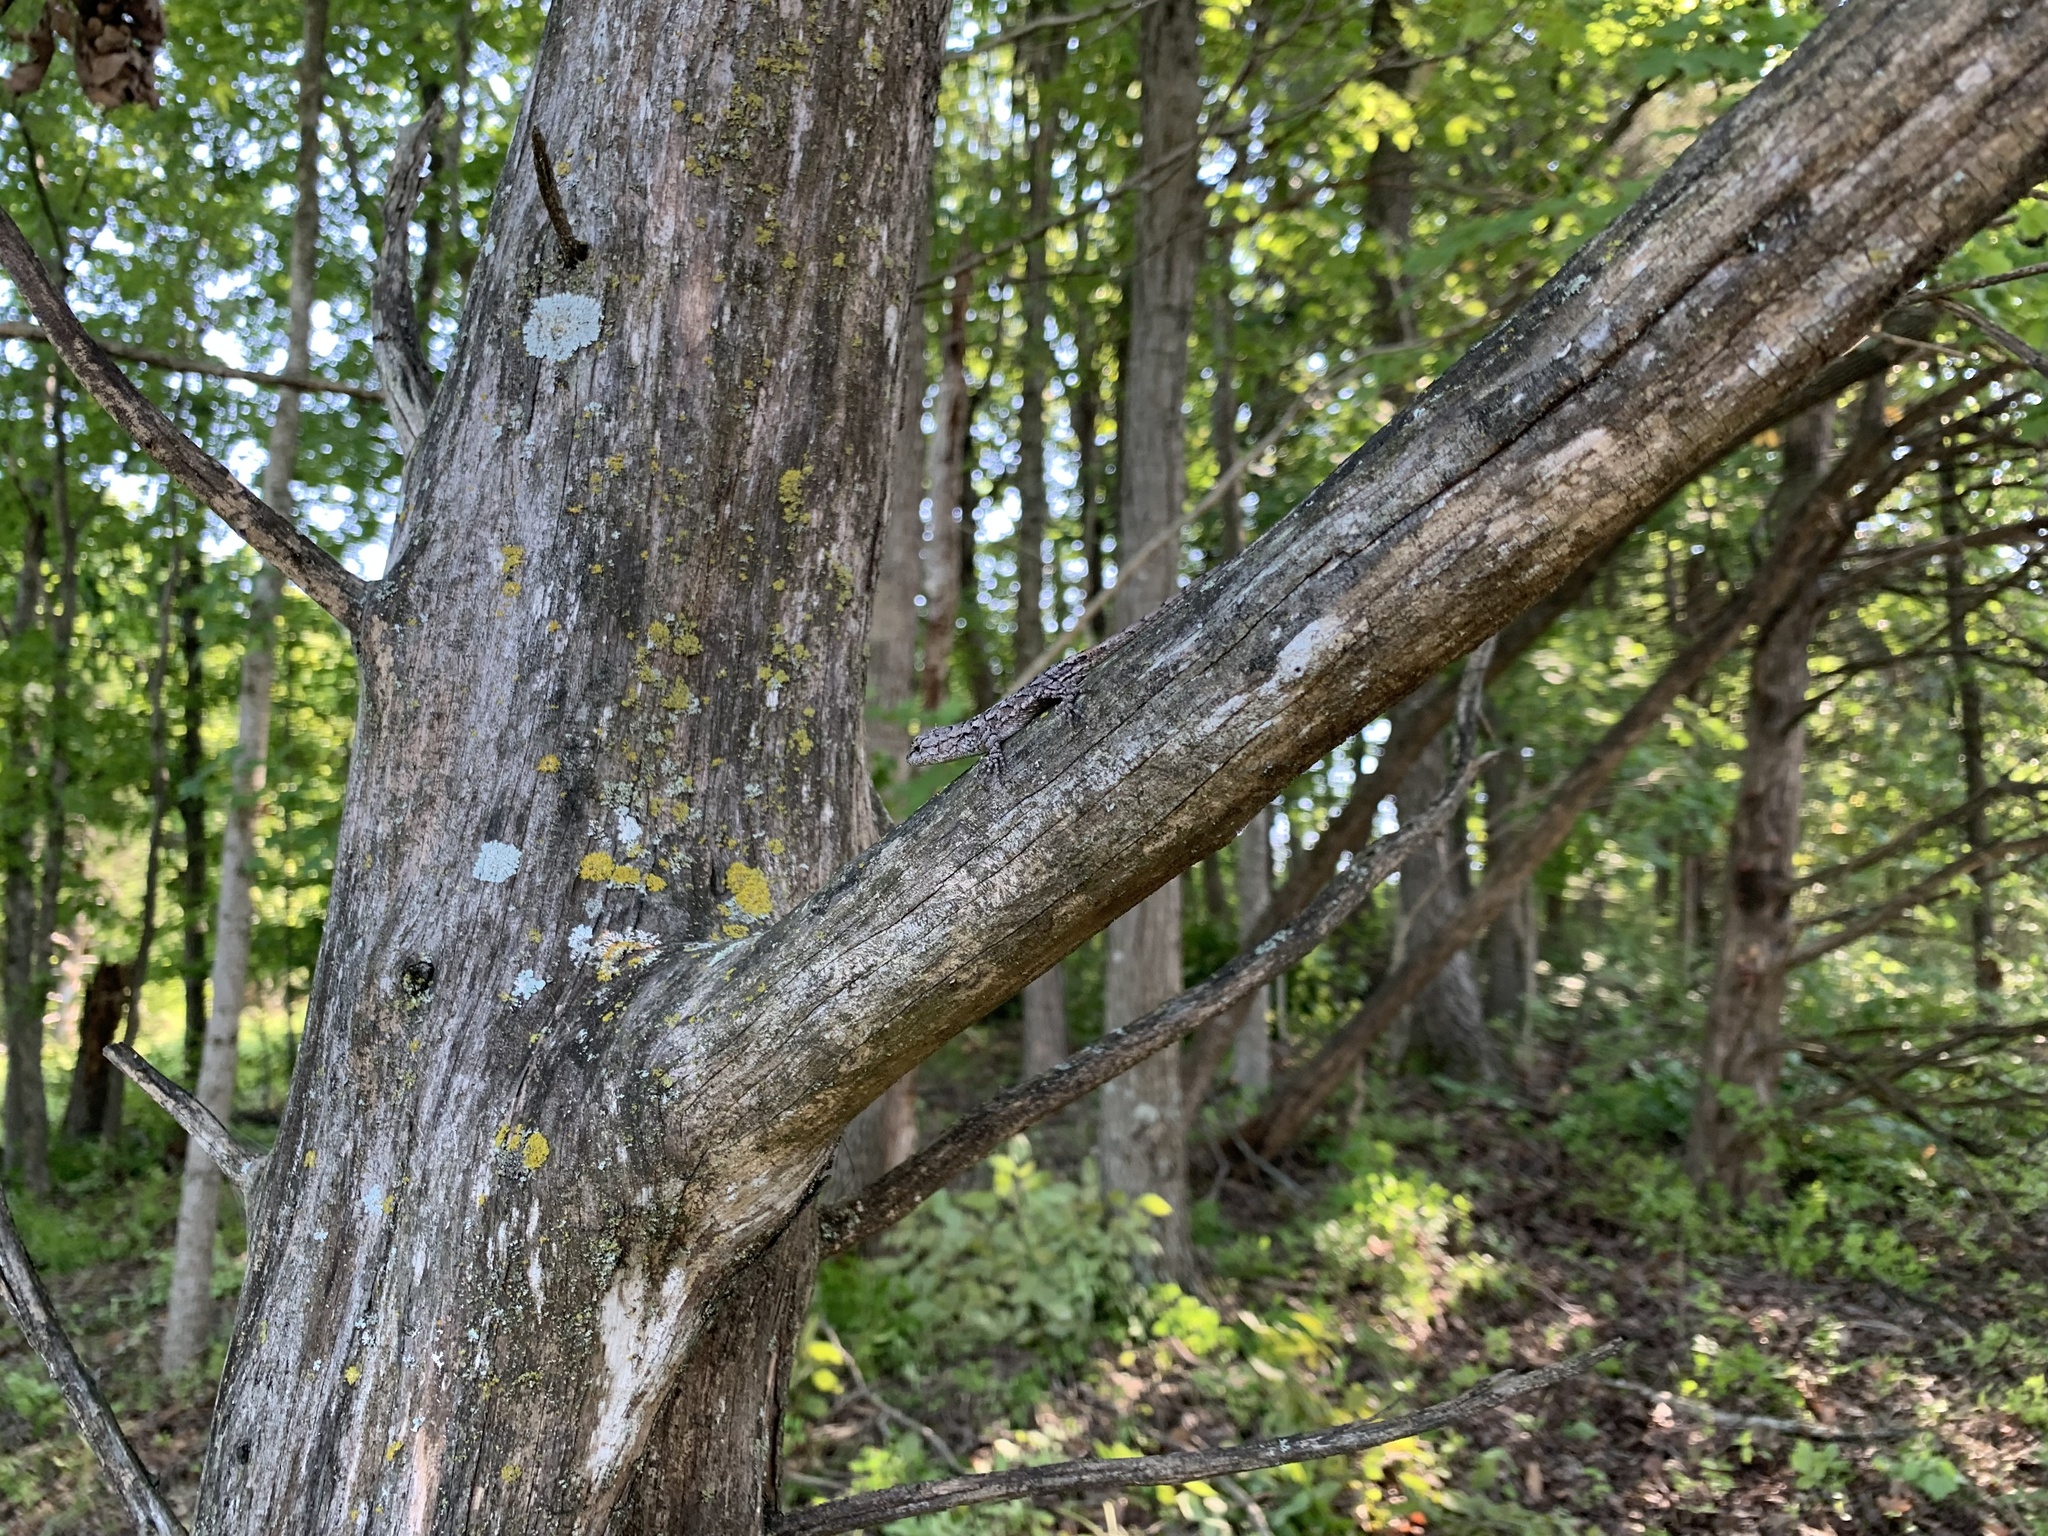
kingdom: Animalia
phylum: Chordata
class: Squamata
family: Phrynosomatidae
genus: Sceloporus
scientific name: Sceloporus consobrinus
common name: Southern prairie lizard
